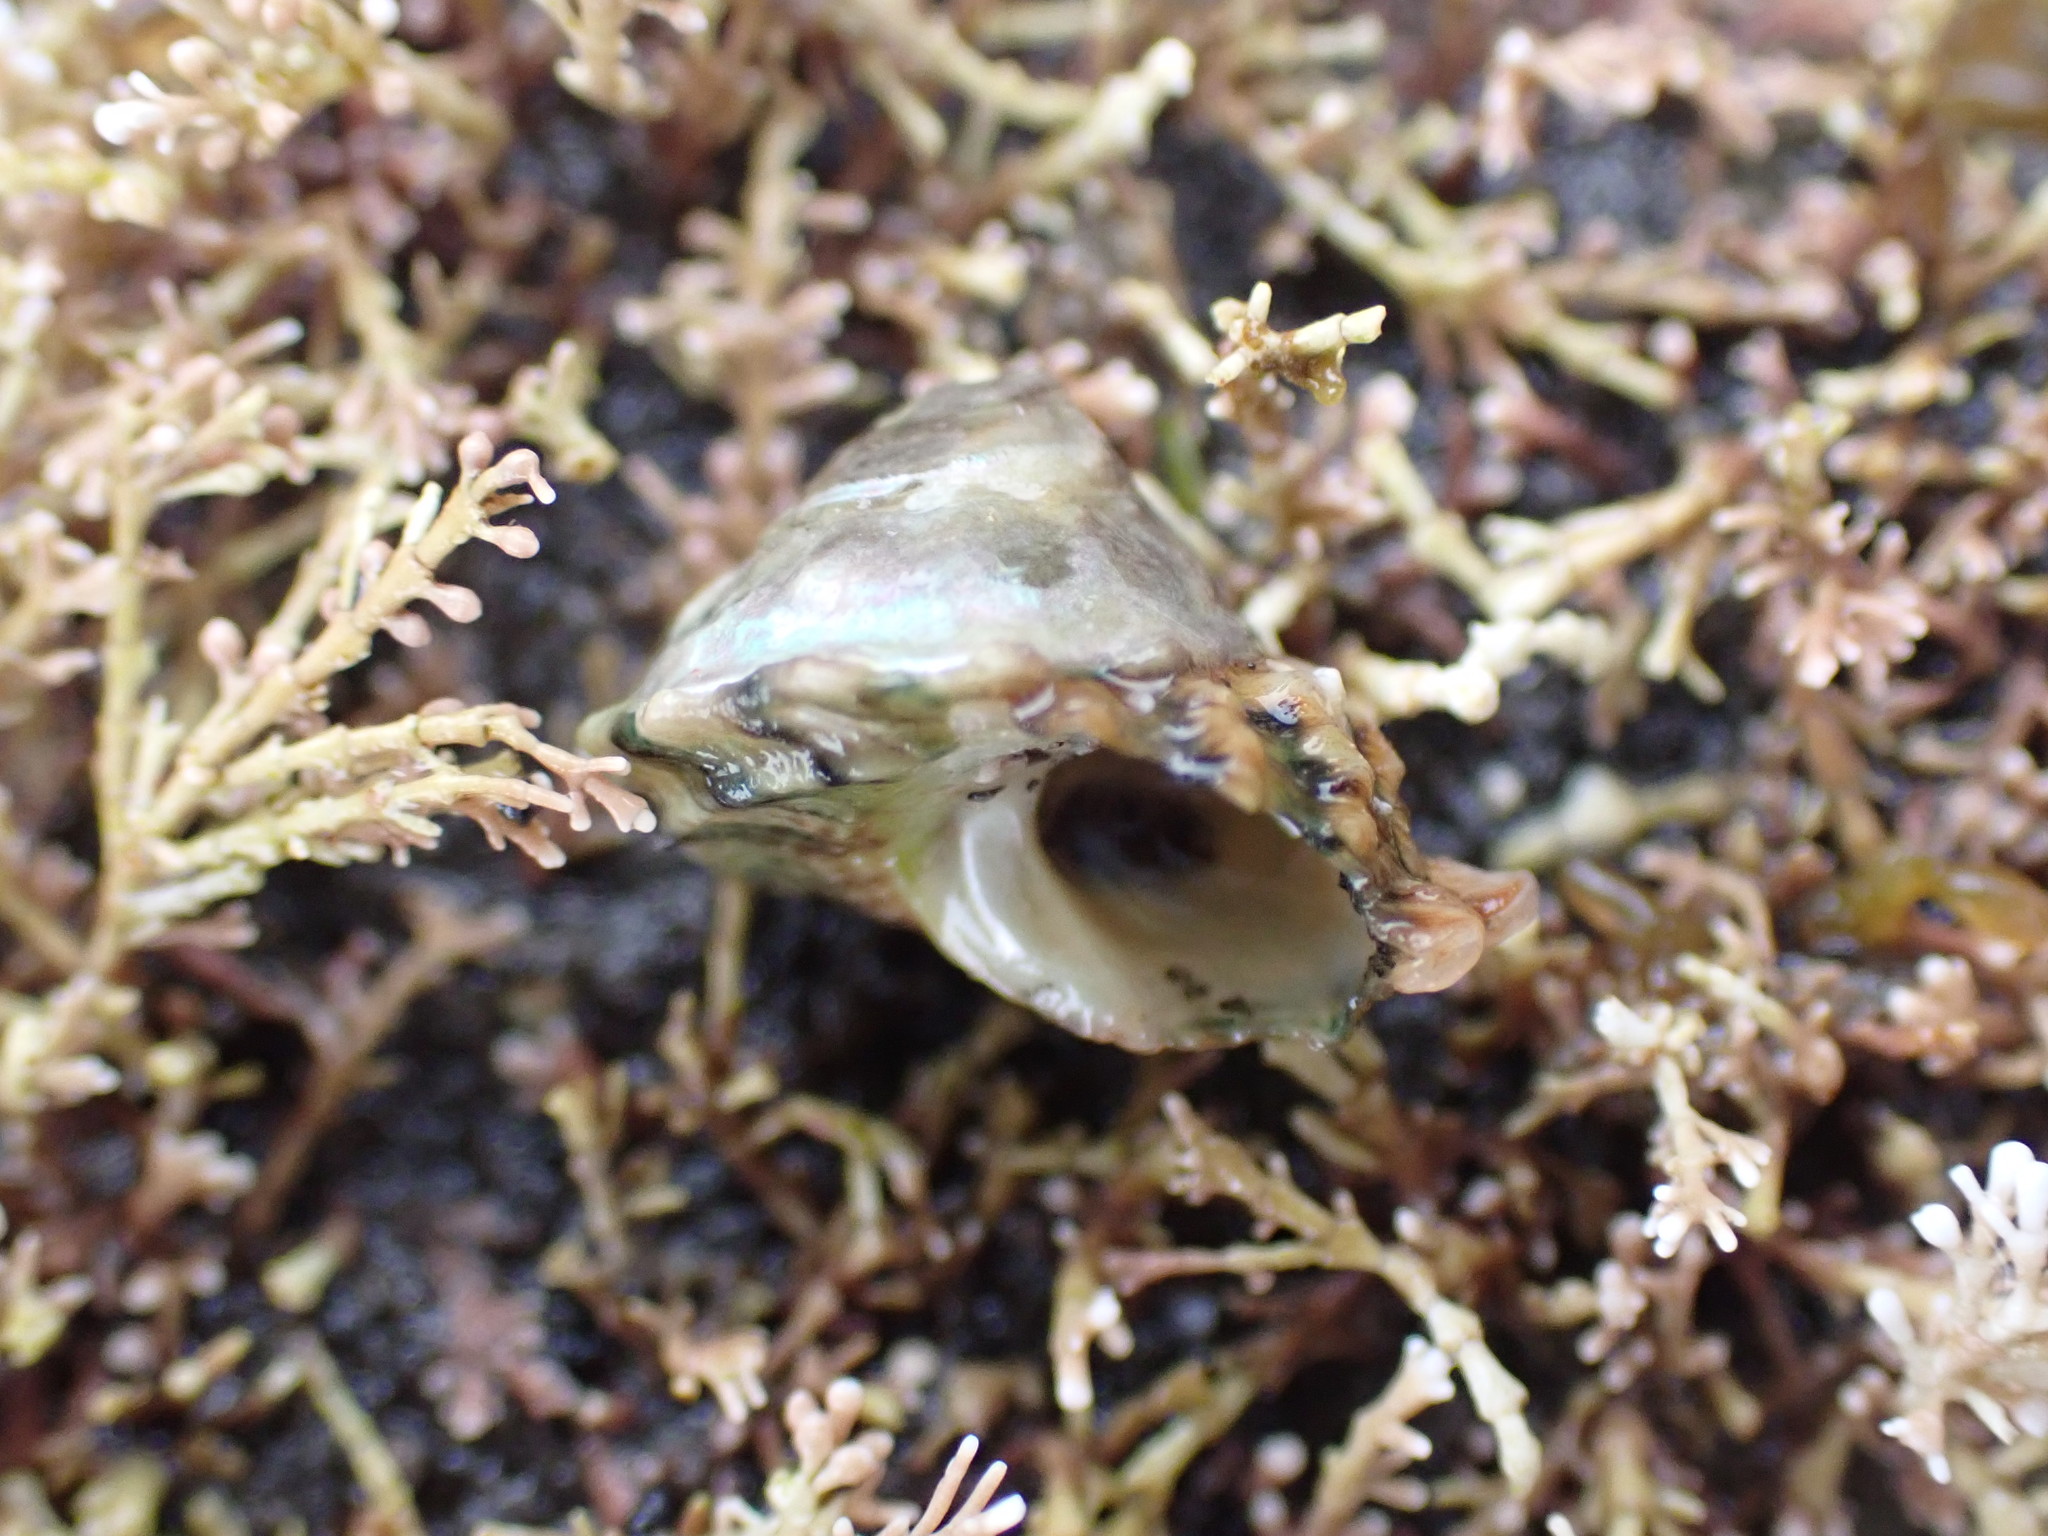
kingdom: Animalia
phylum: Mollusca
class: Gastropoda
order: Trochida
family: Turbinidae
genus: Cookia
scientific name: Cookia sulcata
